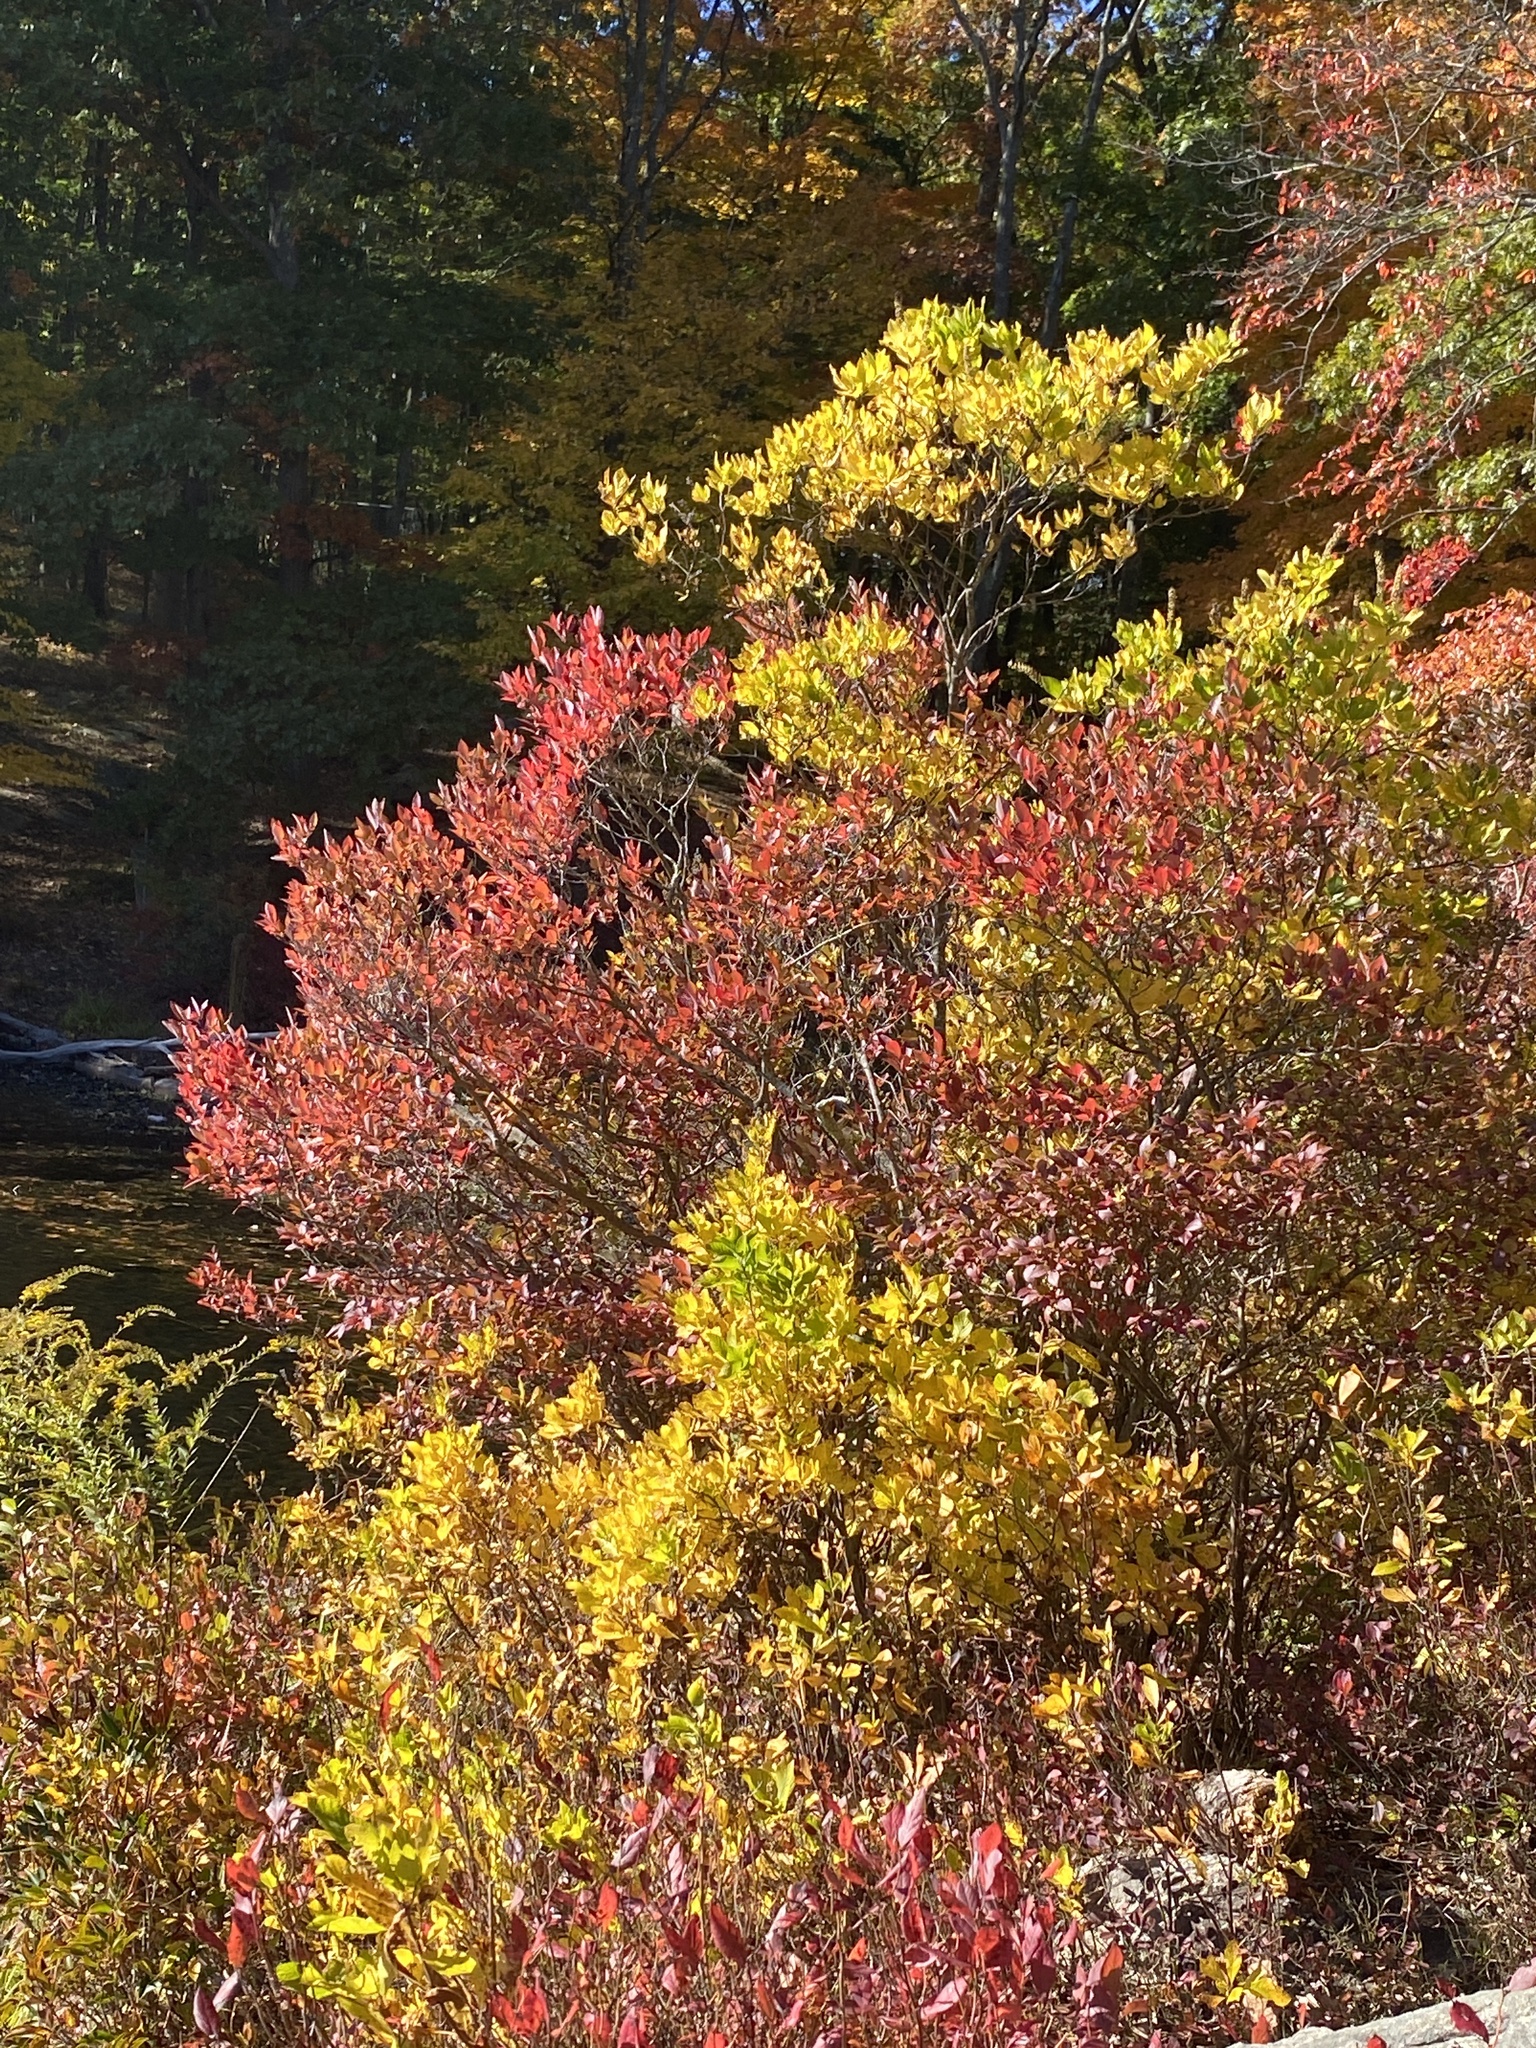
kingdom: Plantae
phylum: Tracheophyta
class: Magnoliopsida
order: Ericales
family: Clethraceae
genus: Clethra
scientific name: Clethra alnifolia
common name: Sweet pepperbush
